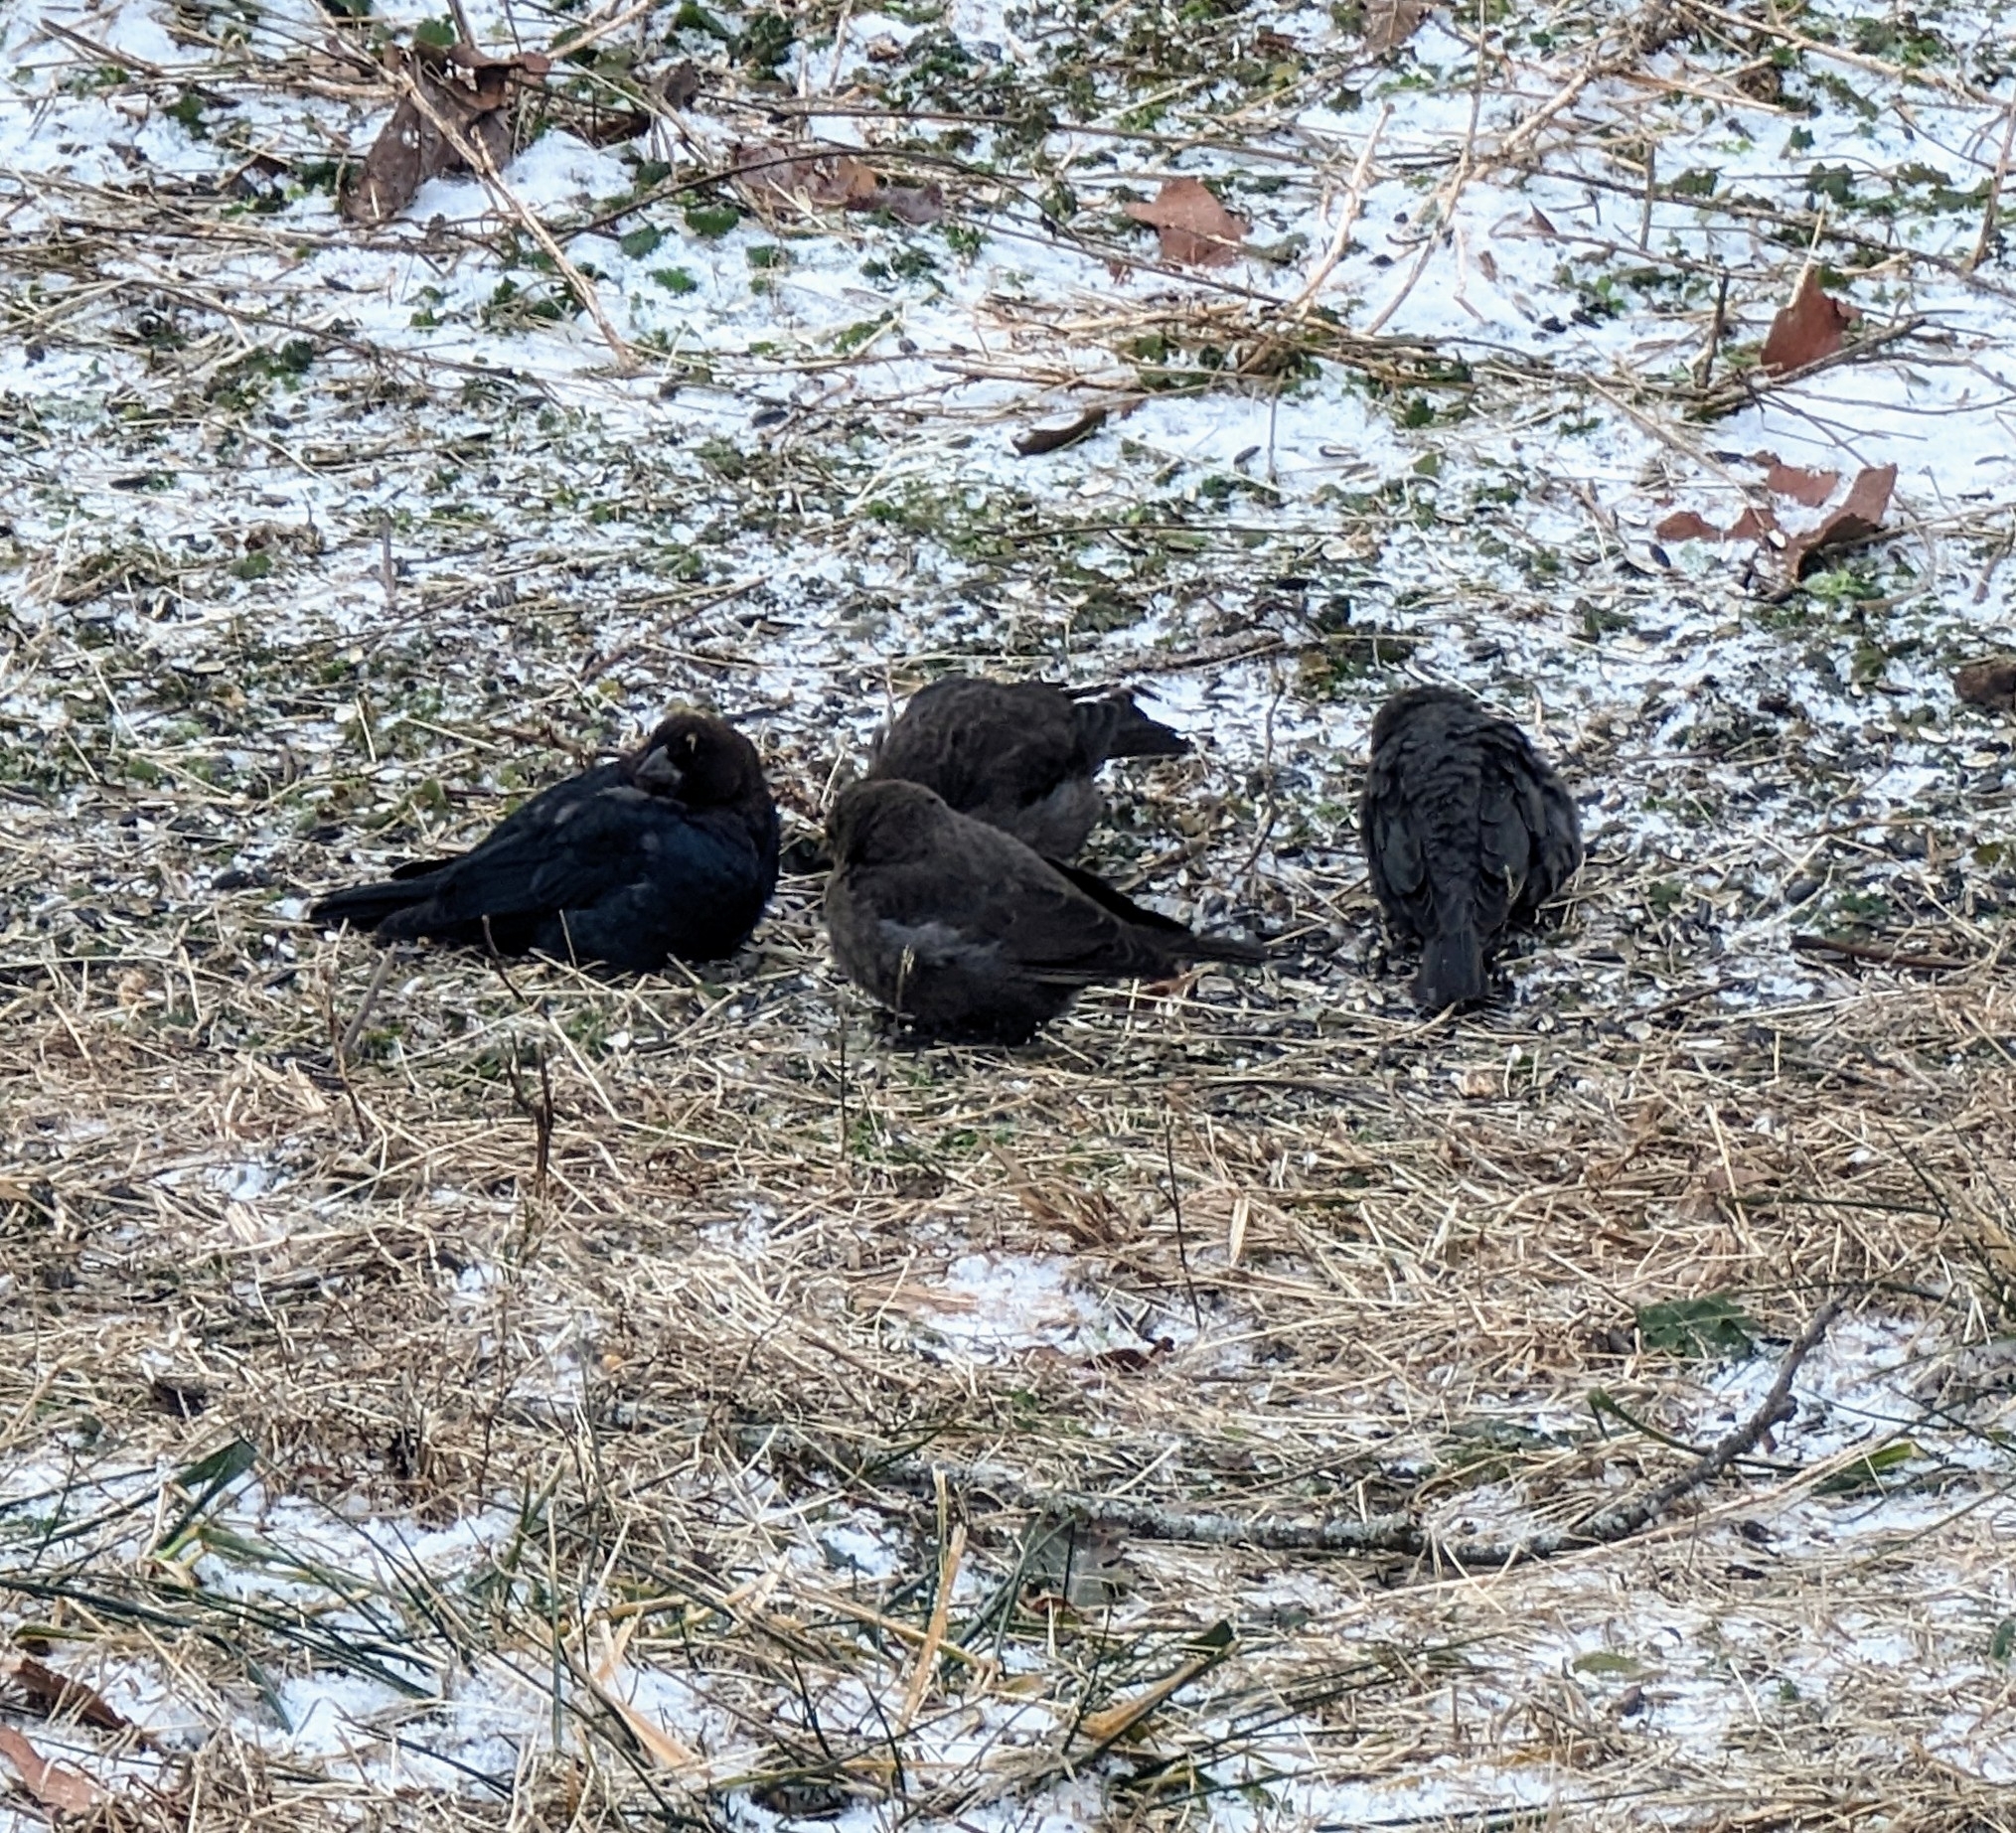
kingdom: Animalia
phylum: Chordata
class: Aves
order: Passeriformes
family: Icteridae
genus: Molothrus
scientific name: Molothrus ater
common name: Brown-headed cowbird
